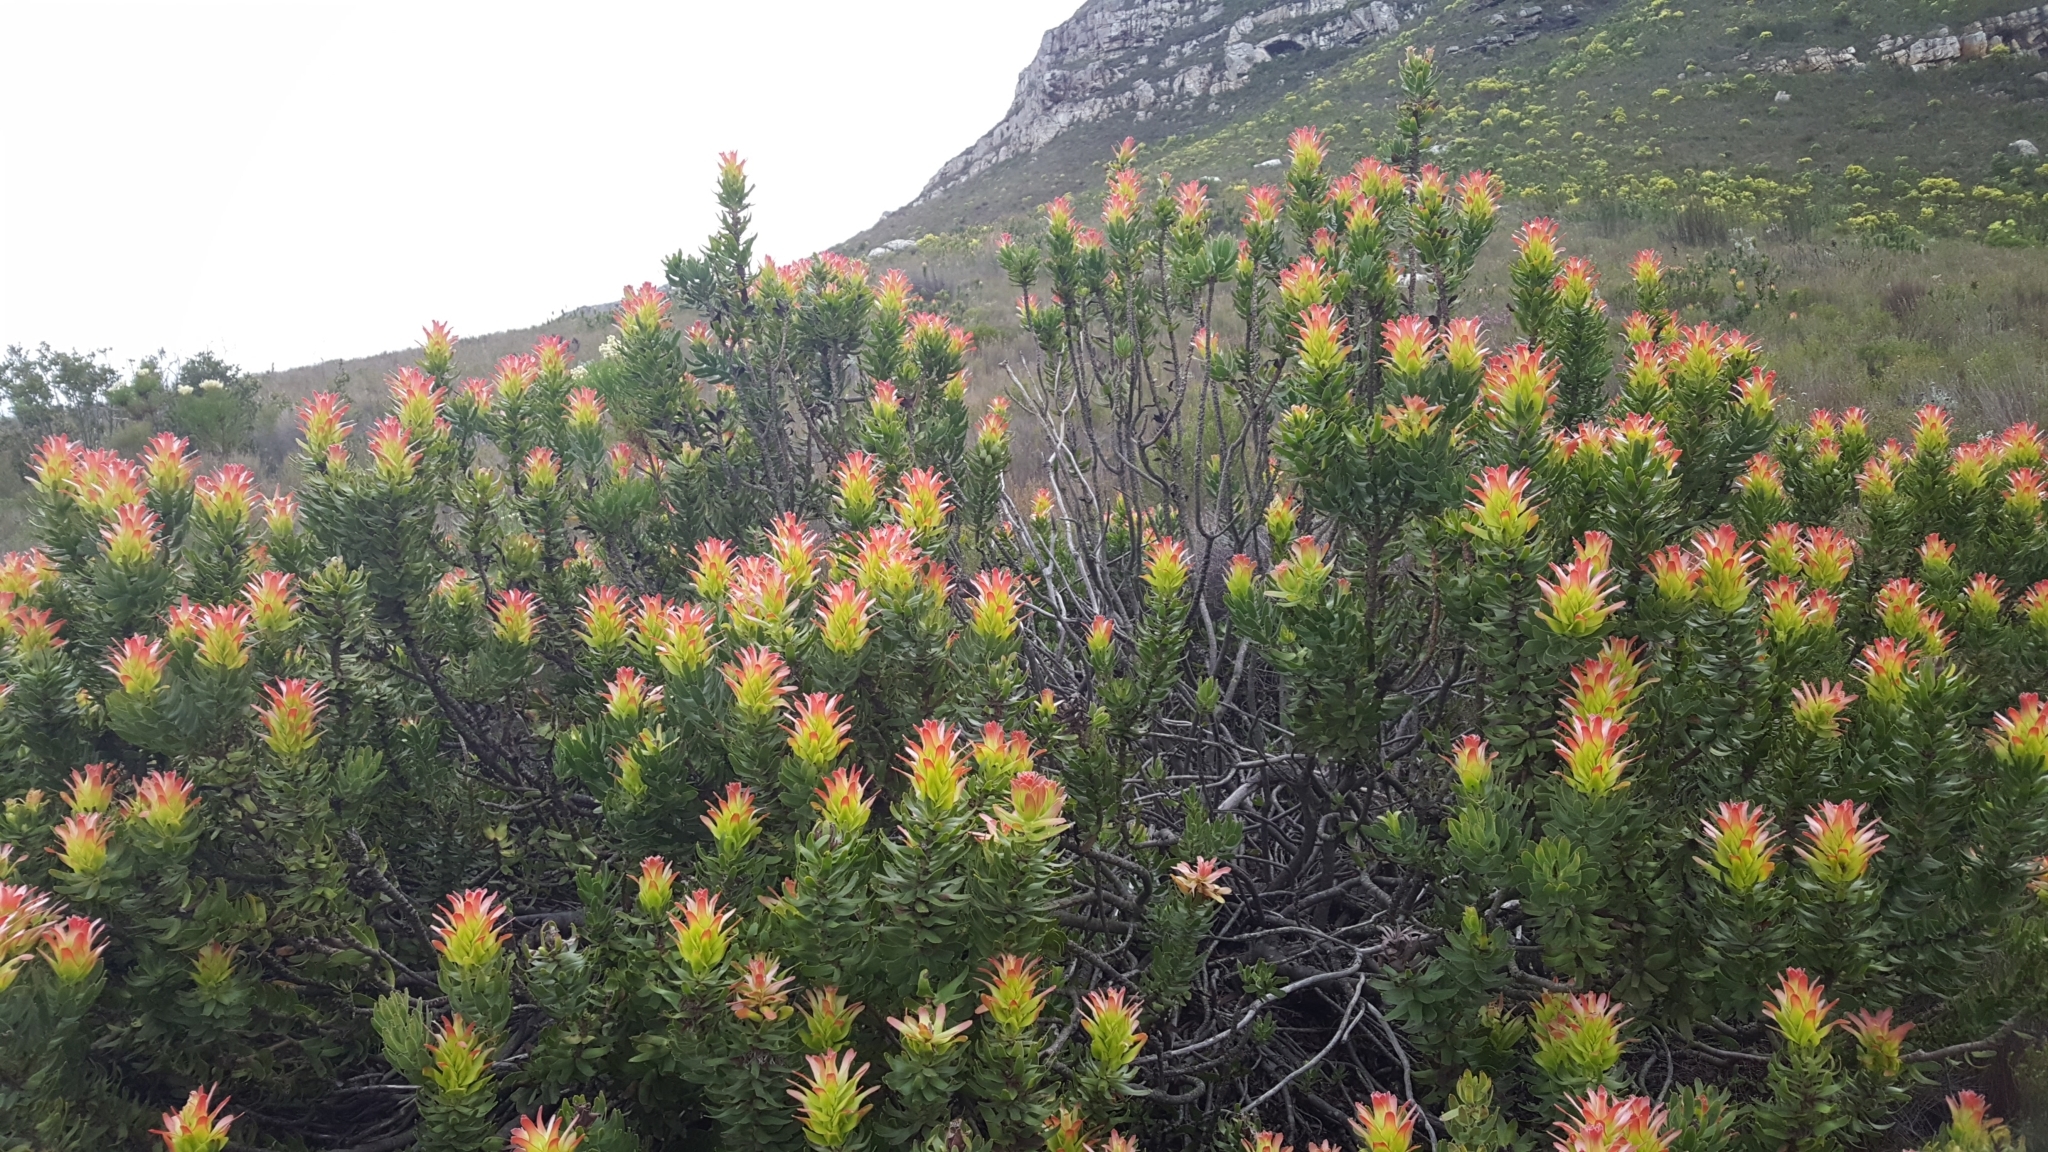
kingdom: Plantae
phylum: Tracheophyta
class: Magnoliopsida
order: Proteales
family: Proteaceae
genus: Mimetes
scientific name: Mimetes cucullatus
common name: Common pagoda
